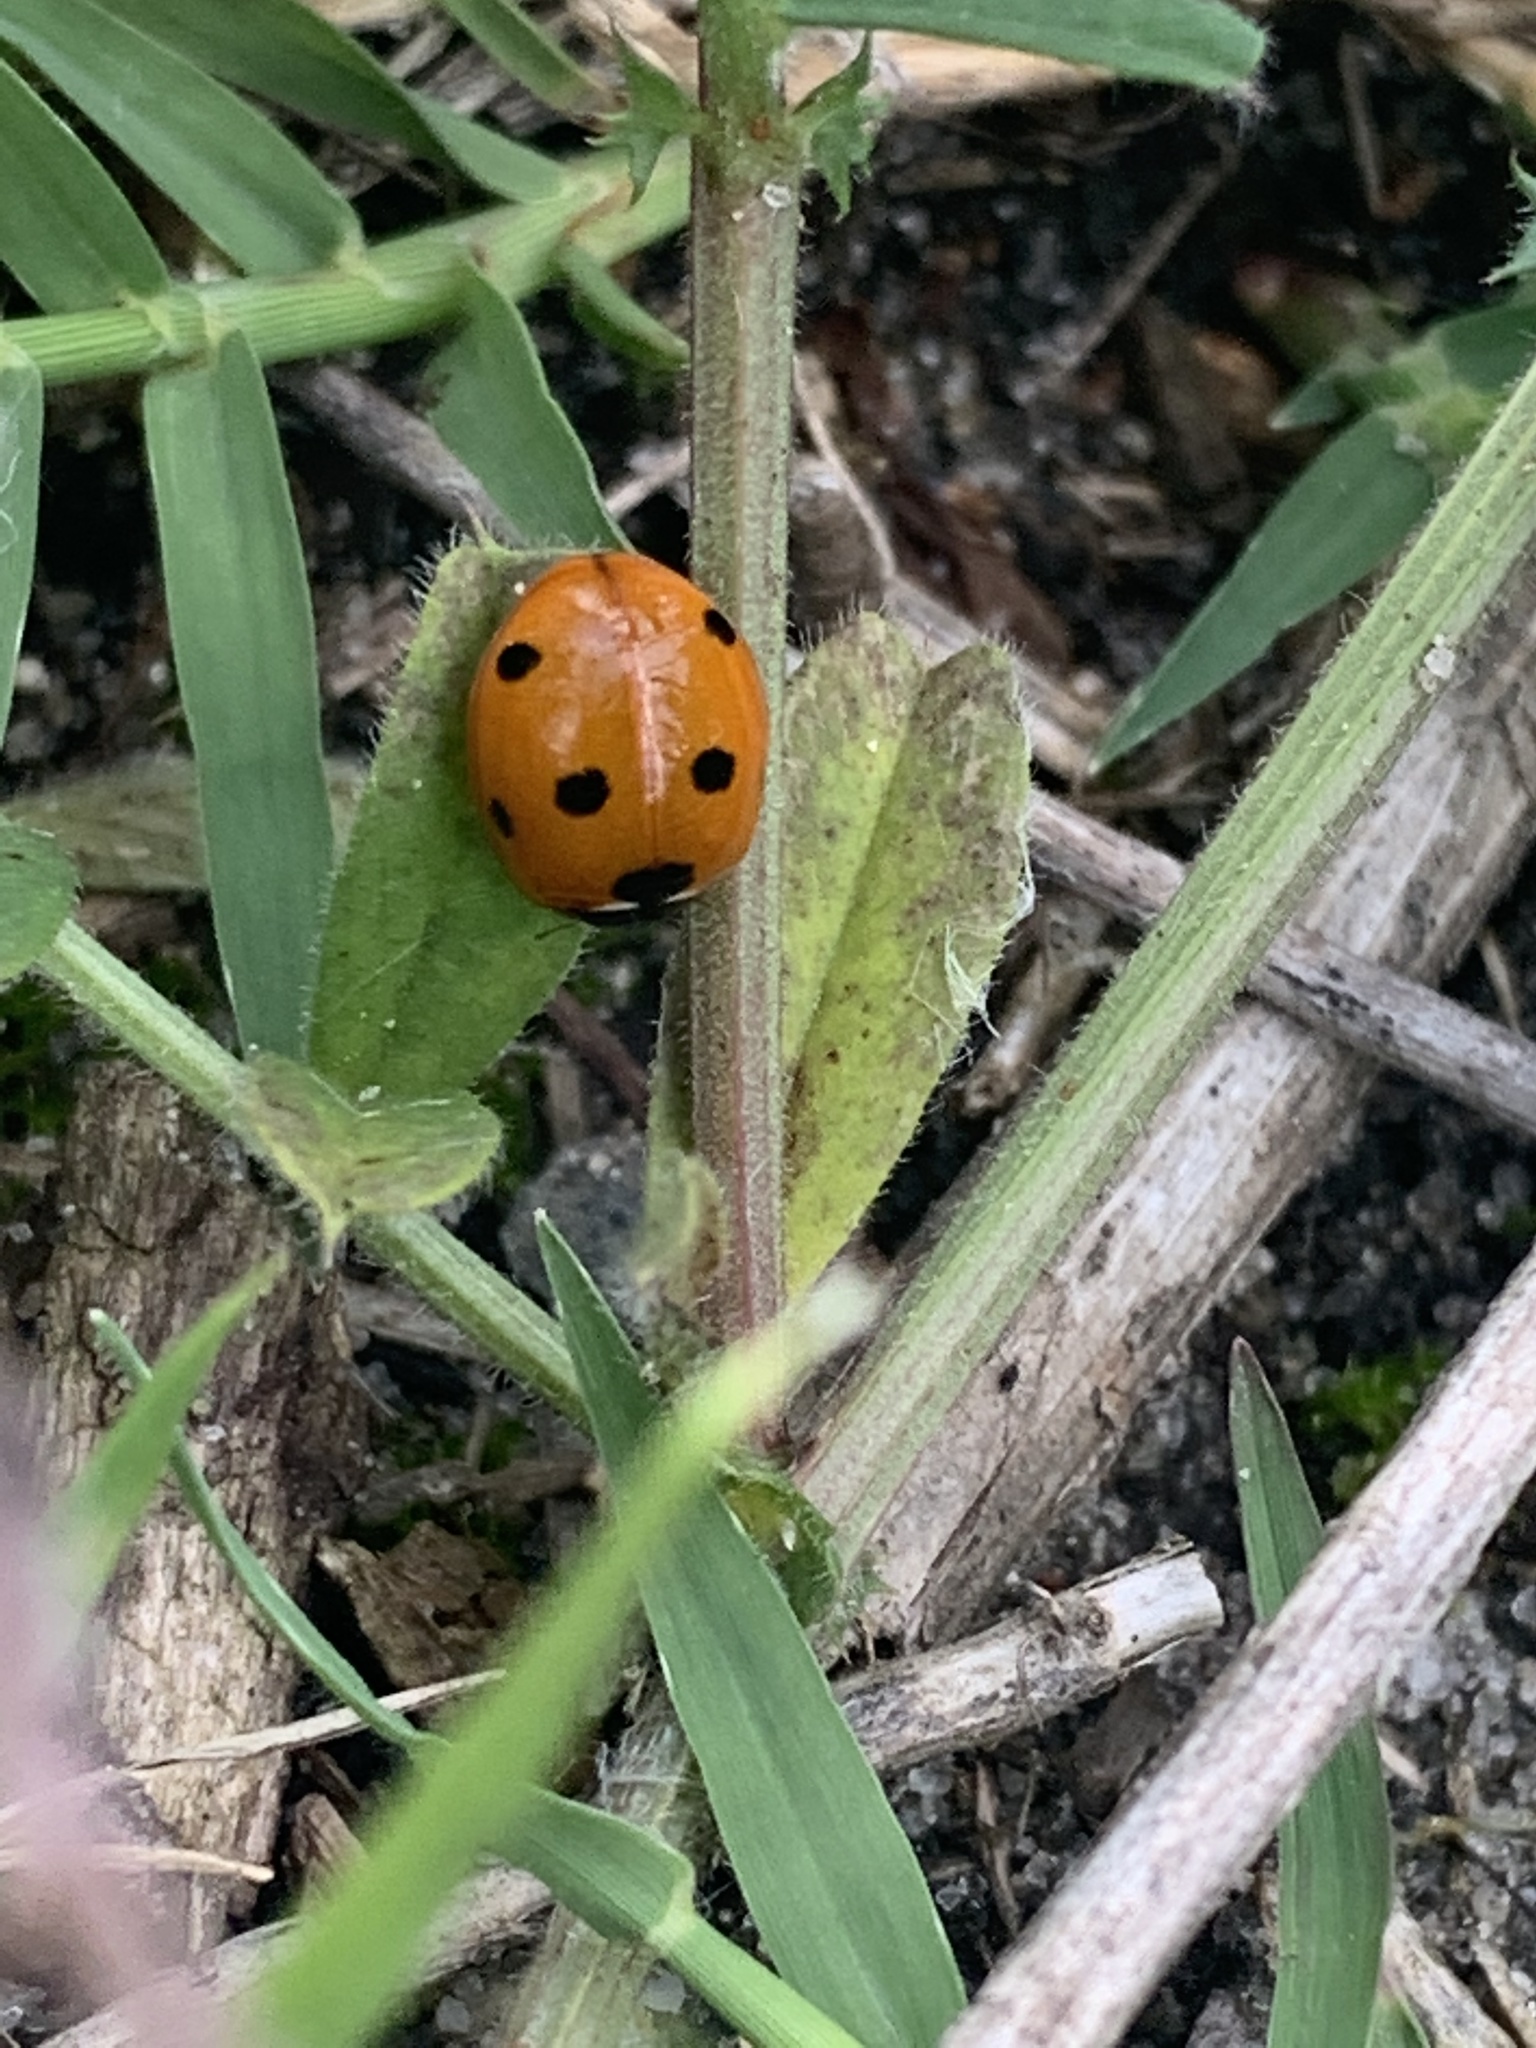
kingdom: Animalia
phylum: Arthropoda
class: Insecta
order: Coleoptera
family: Coccinellidae
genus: Coccinella
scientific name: Coccinella septempunctata
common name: Sevenspotted lady beetle
